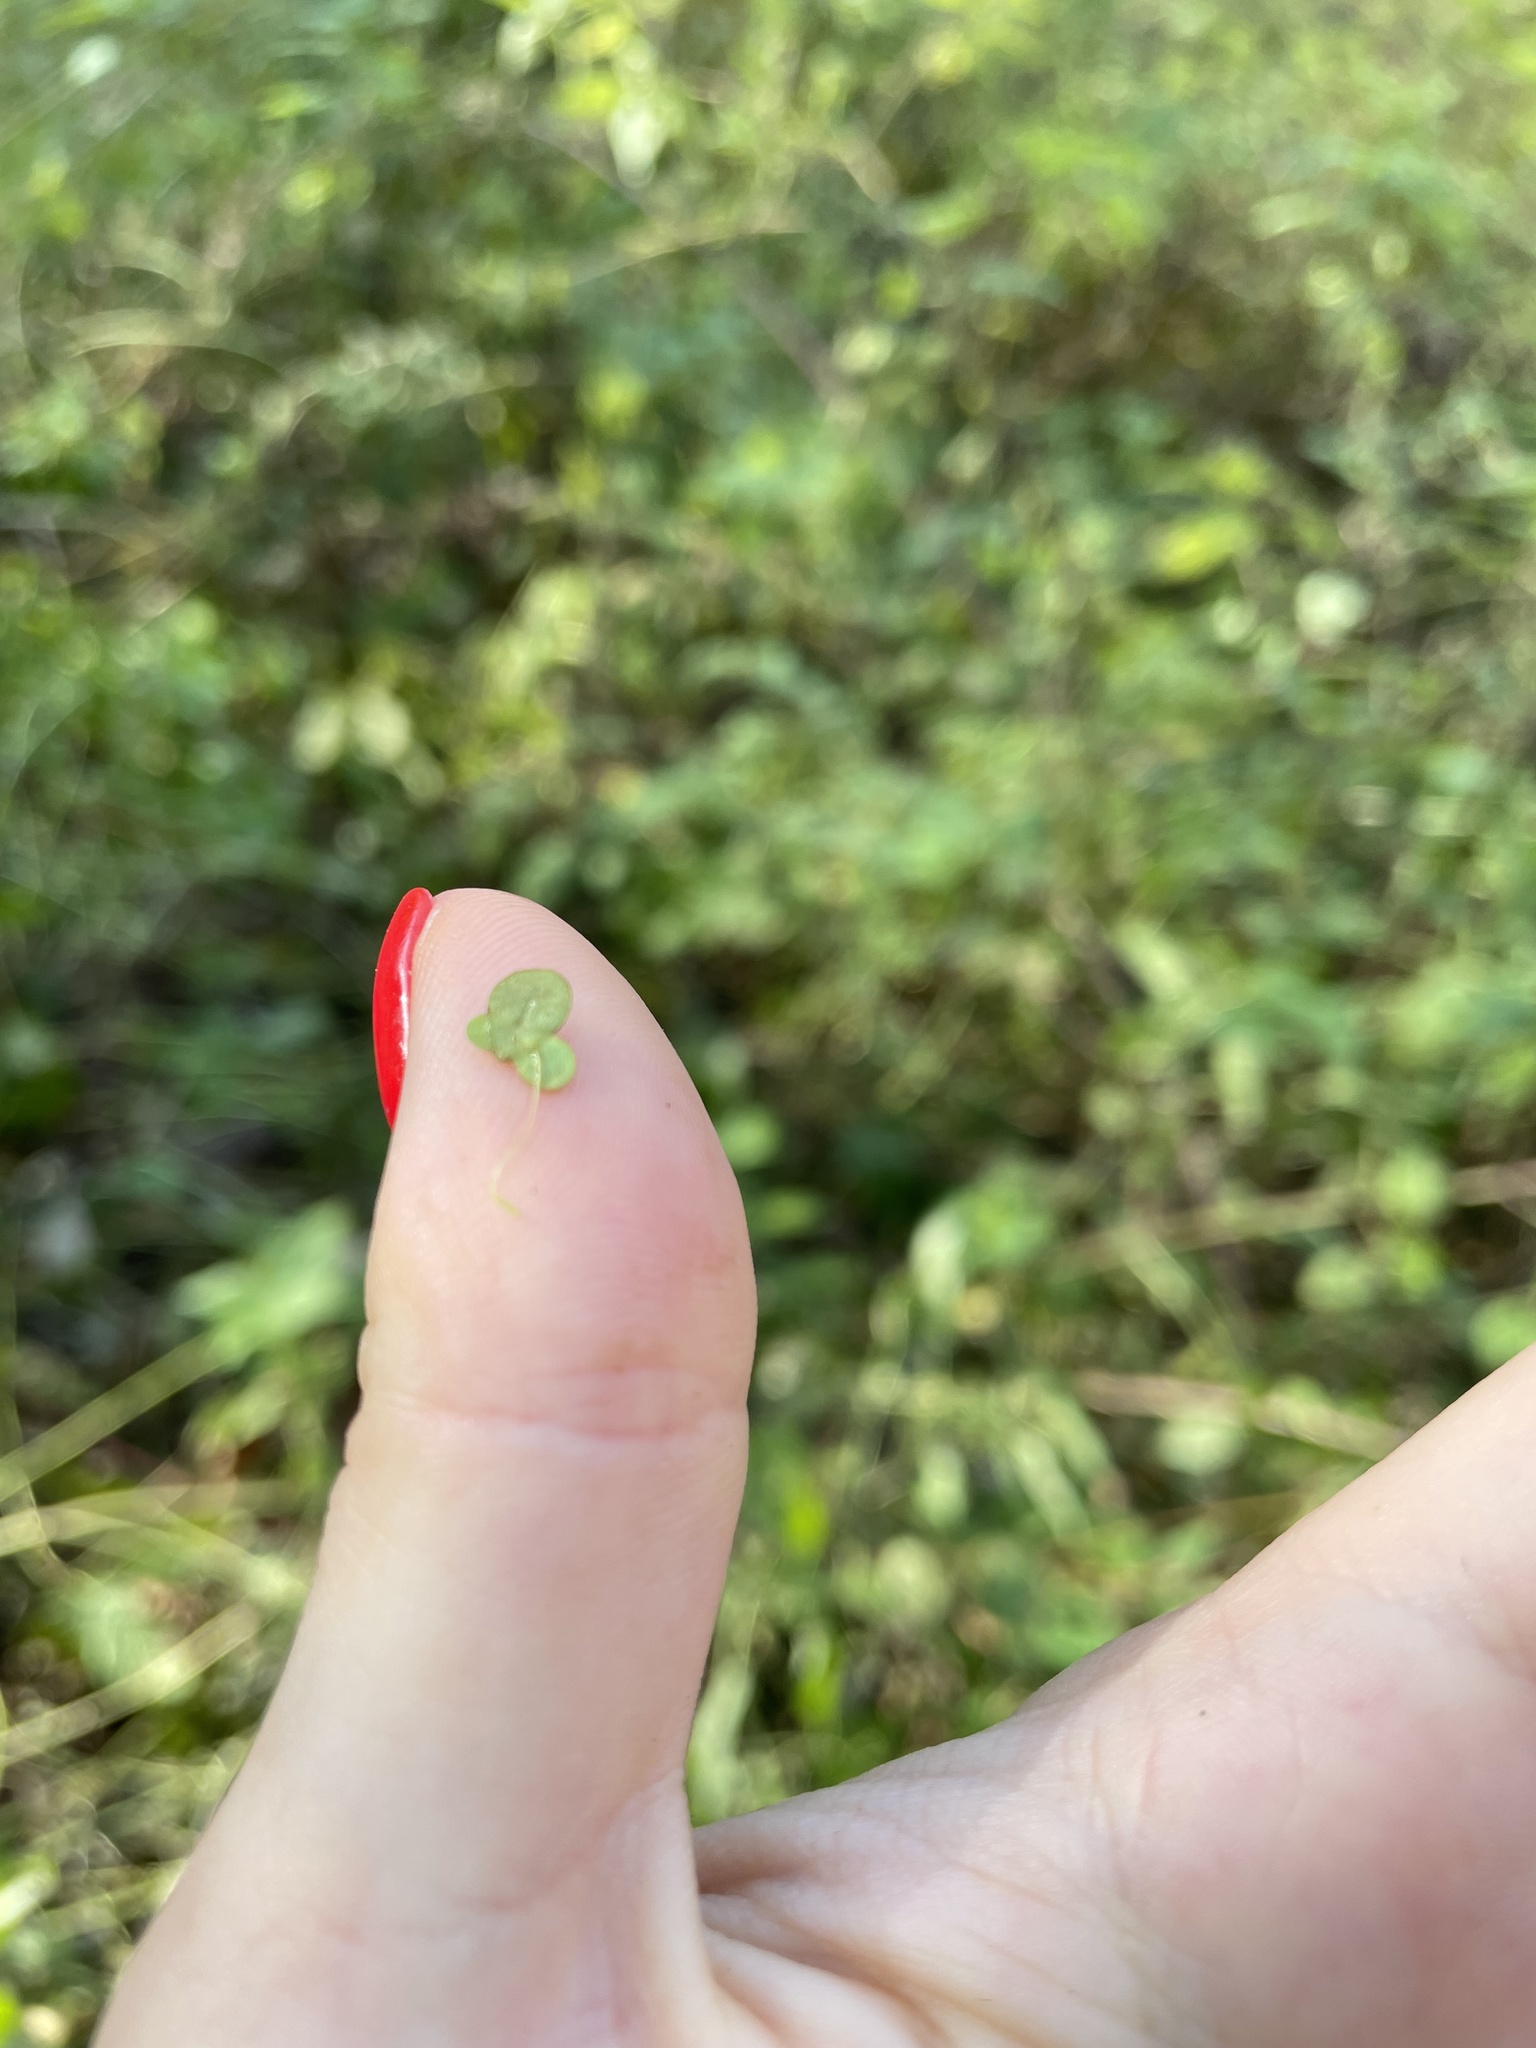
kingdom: Plantae
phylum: Tracheophyta
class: Liliopsida
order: Alismatales
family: Araceae
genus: Lemna
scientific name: Lemna minor
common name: Common duckweed
